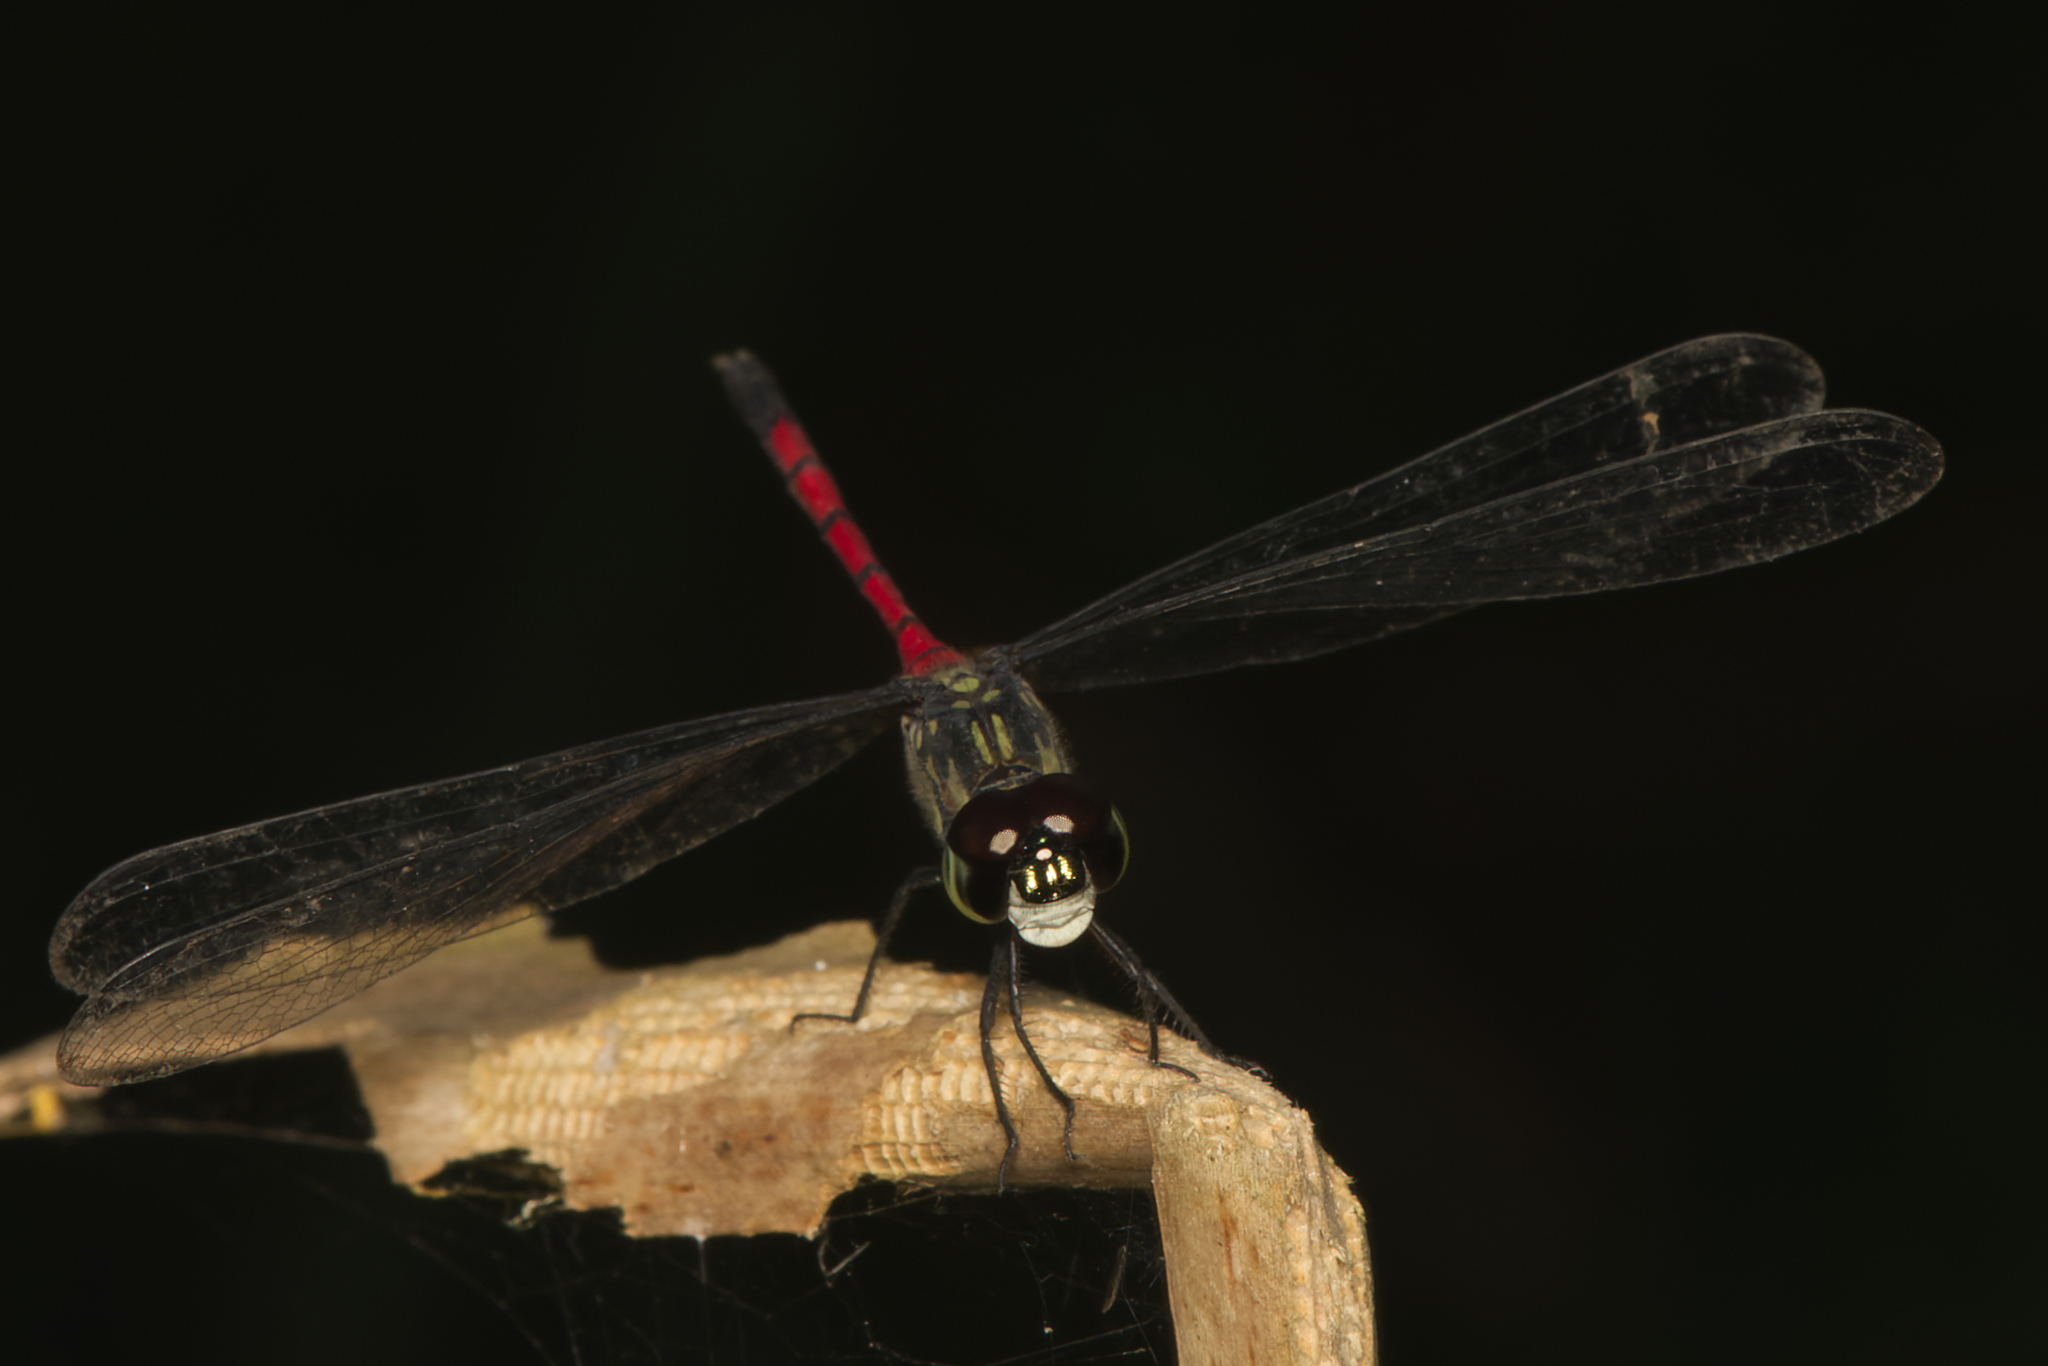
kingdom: Animalia
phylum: Arthropoda
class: Insecta
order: Odonata
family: Libellulidae
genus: Agrionoptera
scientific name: Agrionoptera insignis
